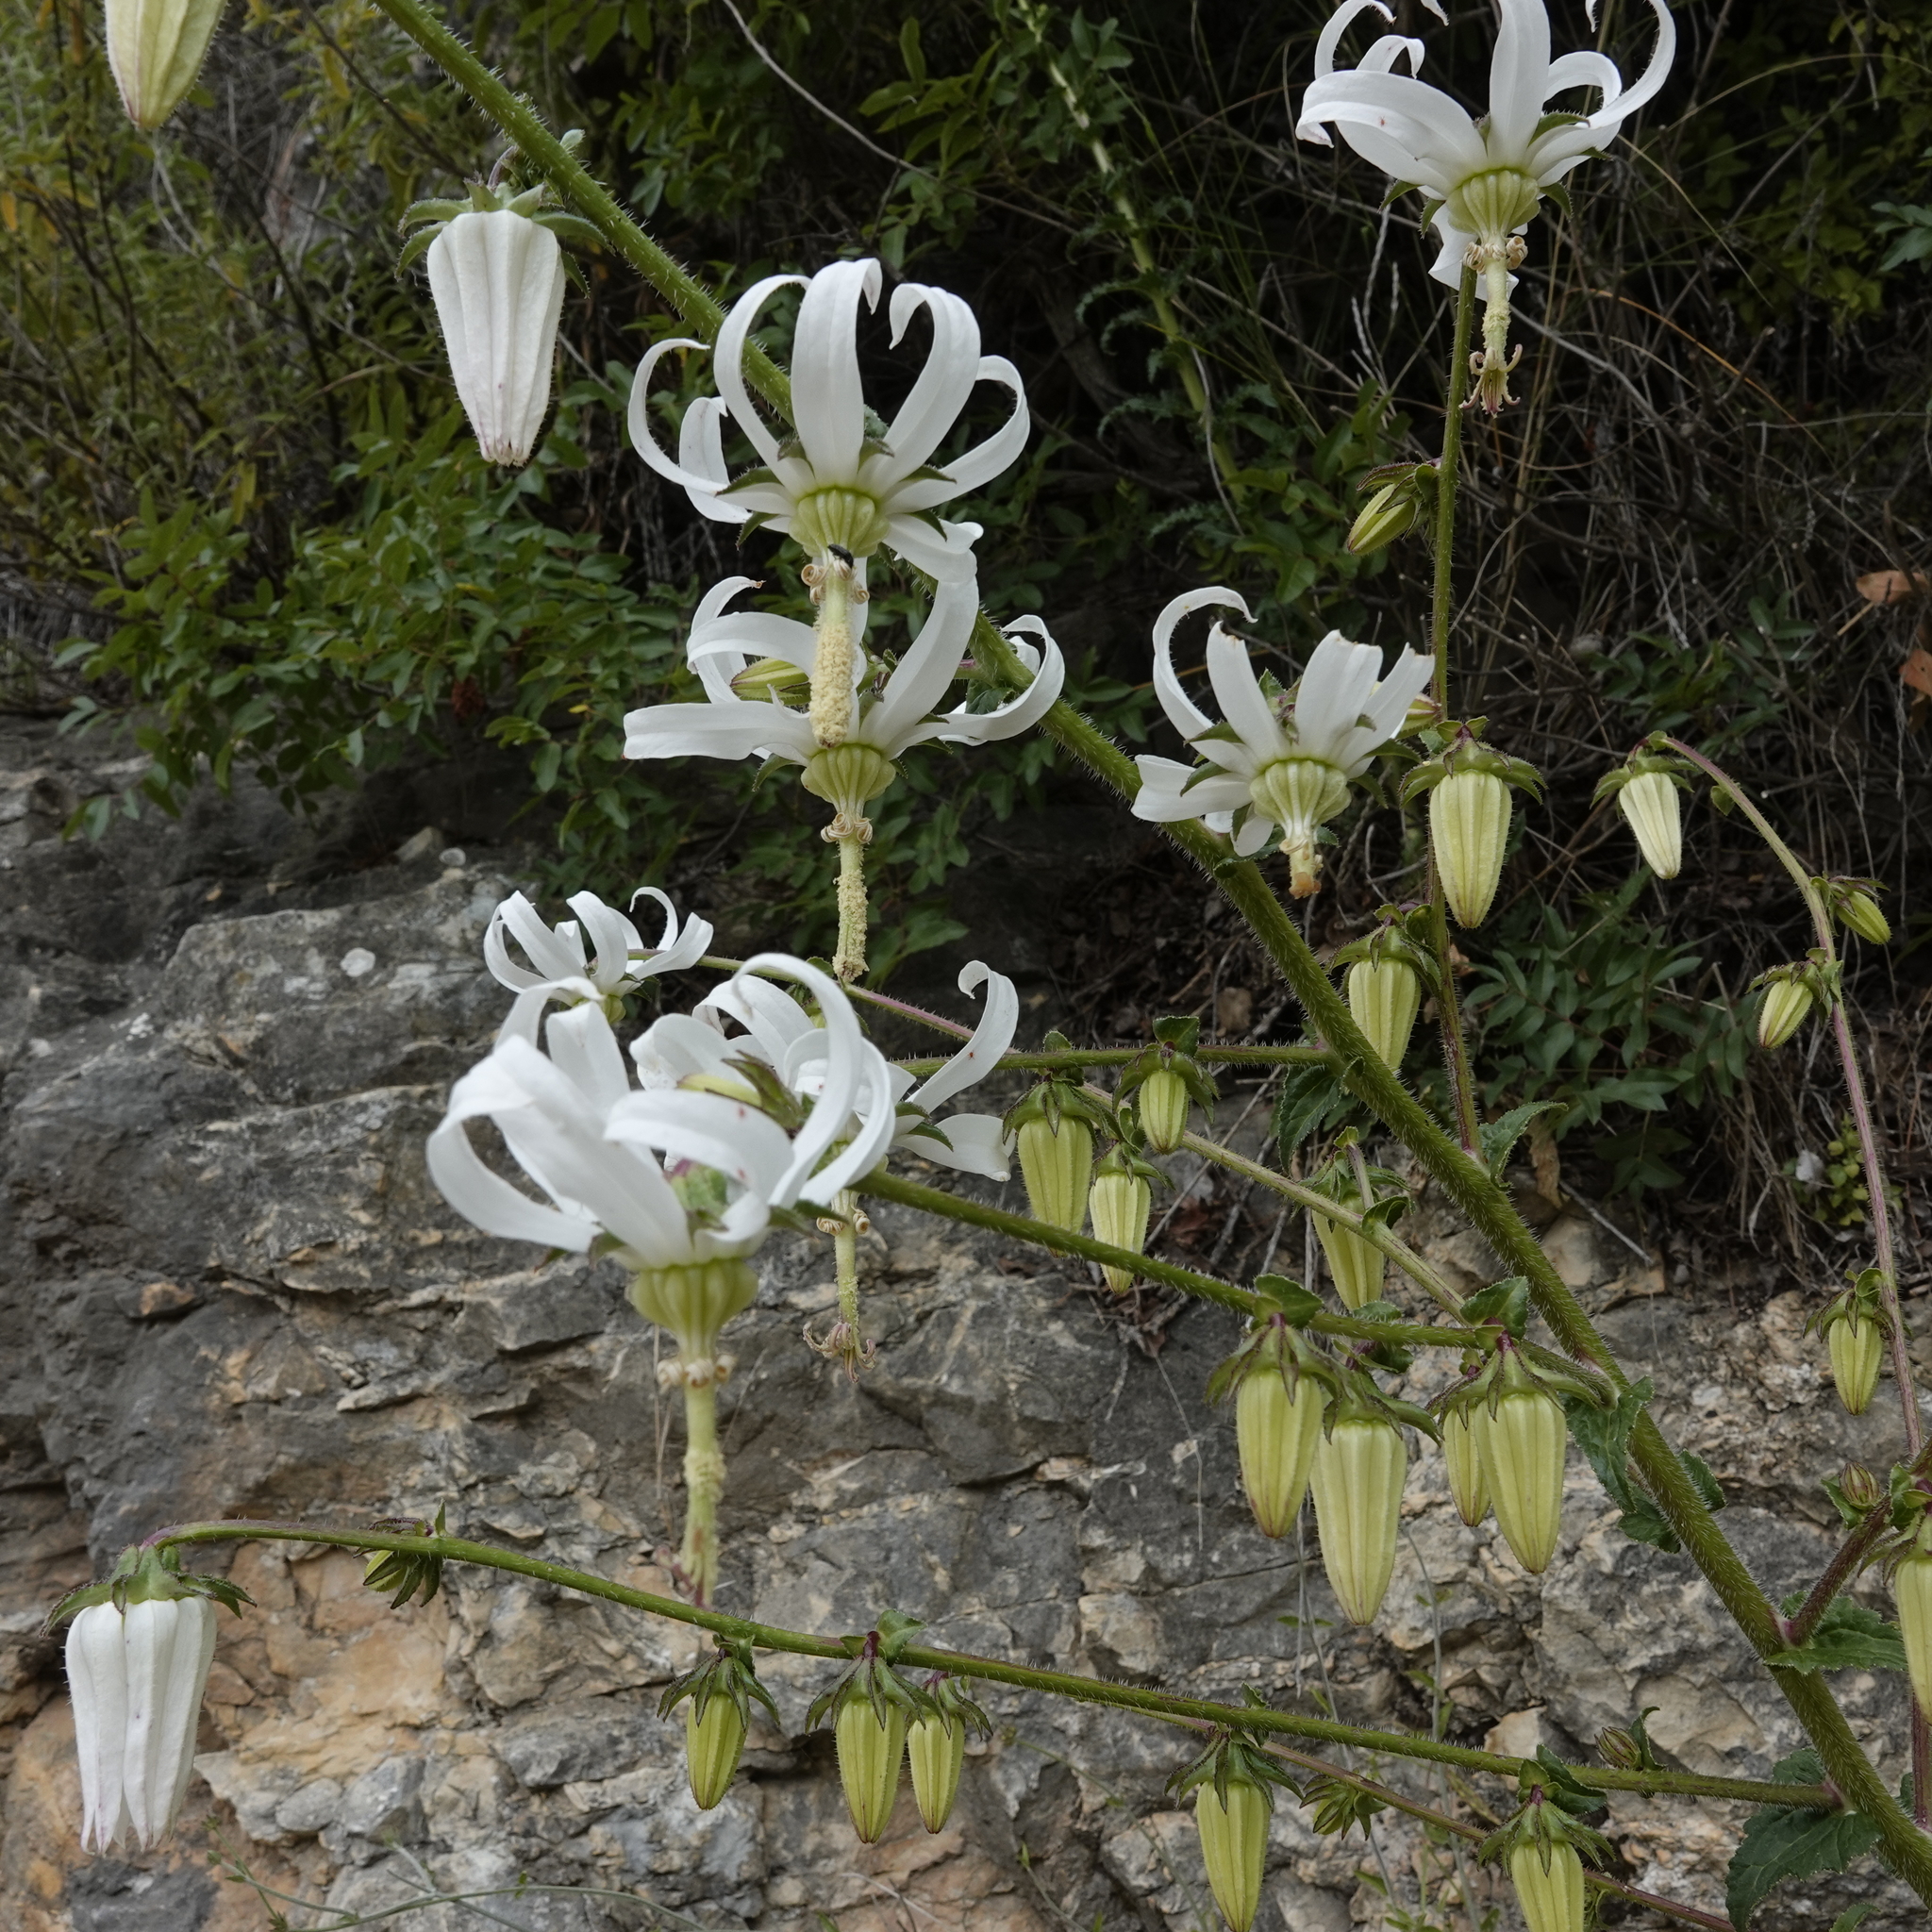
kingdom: Plantae
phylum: Tracheophyta
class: Magnoliopsida
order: Asterales
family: Campanulaceae
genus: Michauxia
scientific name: Michauxia campanuloides
